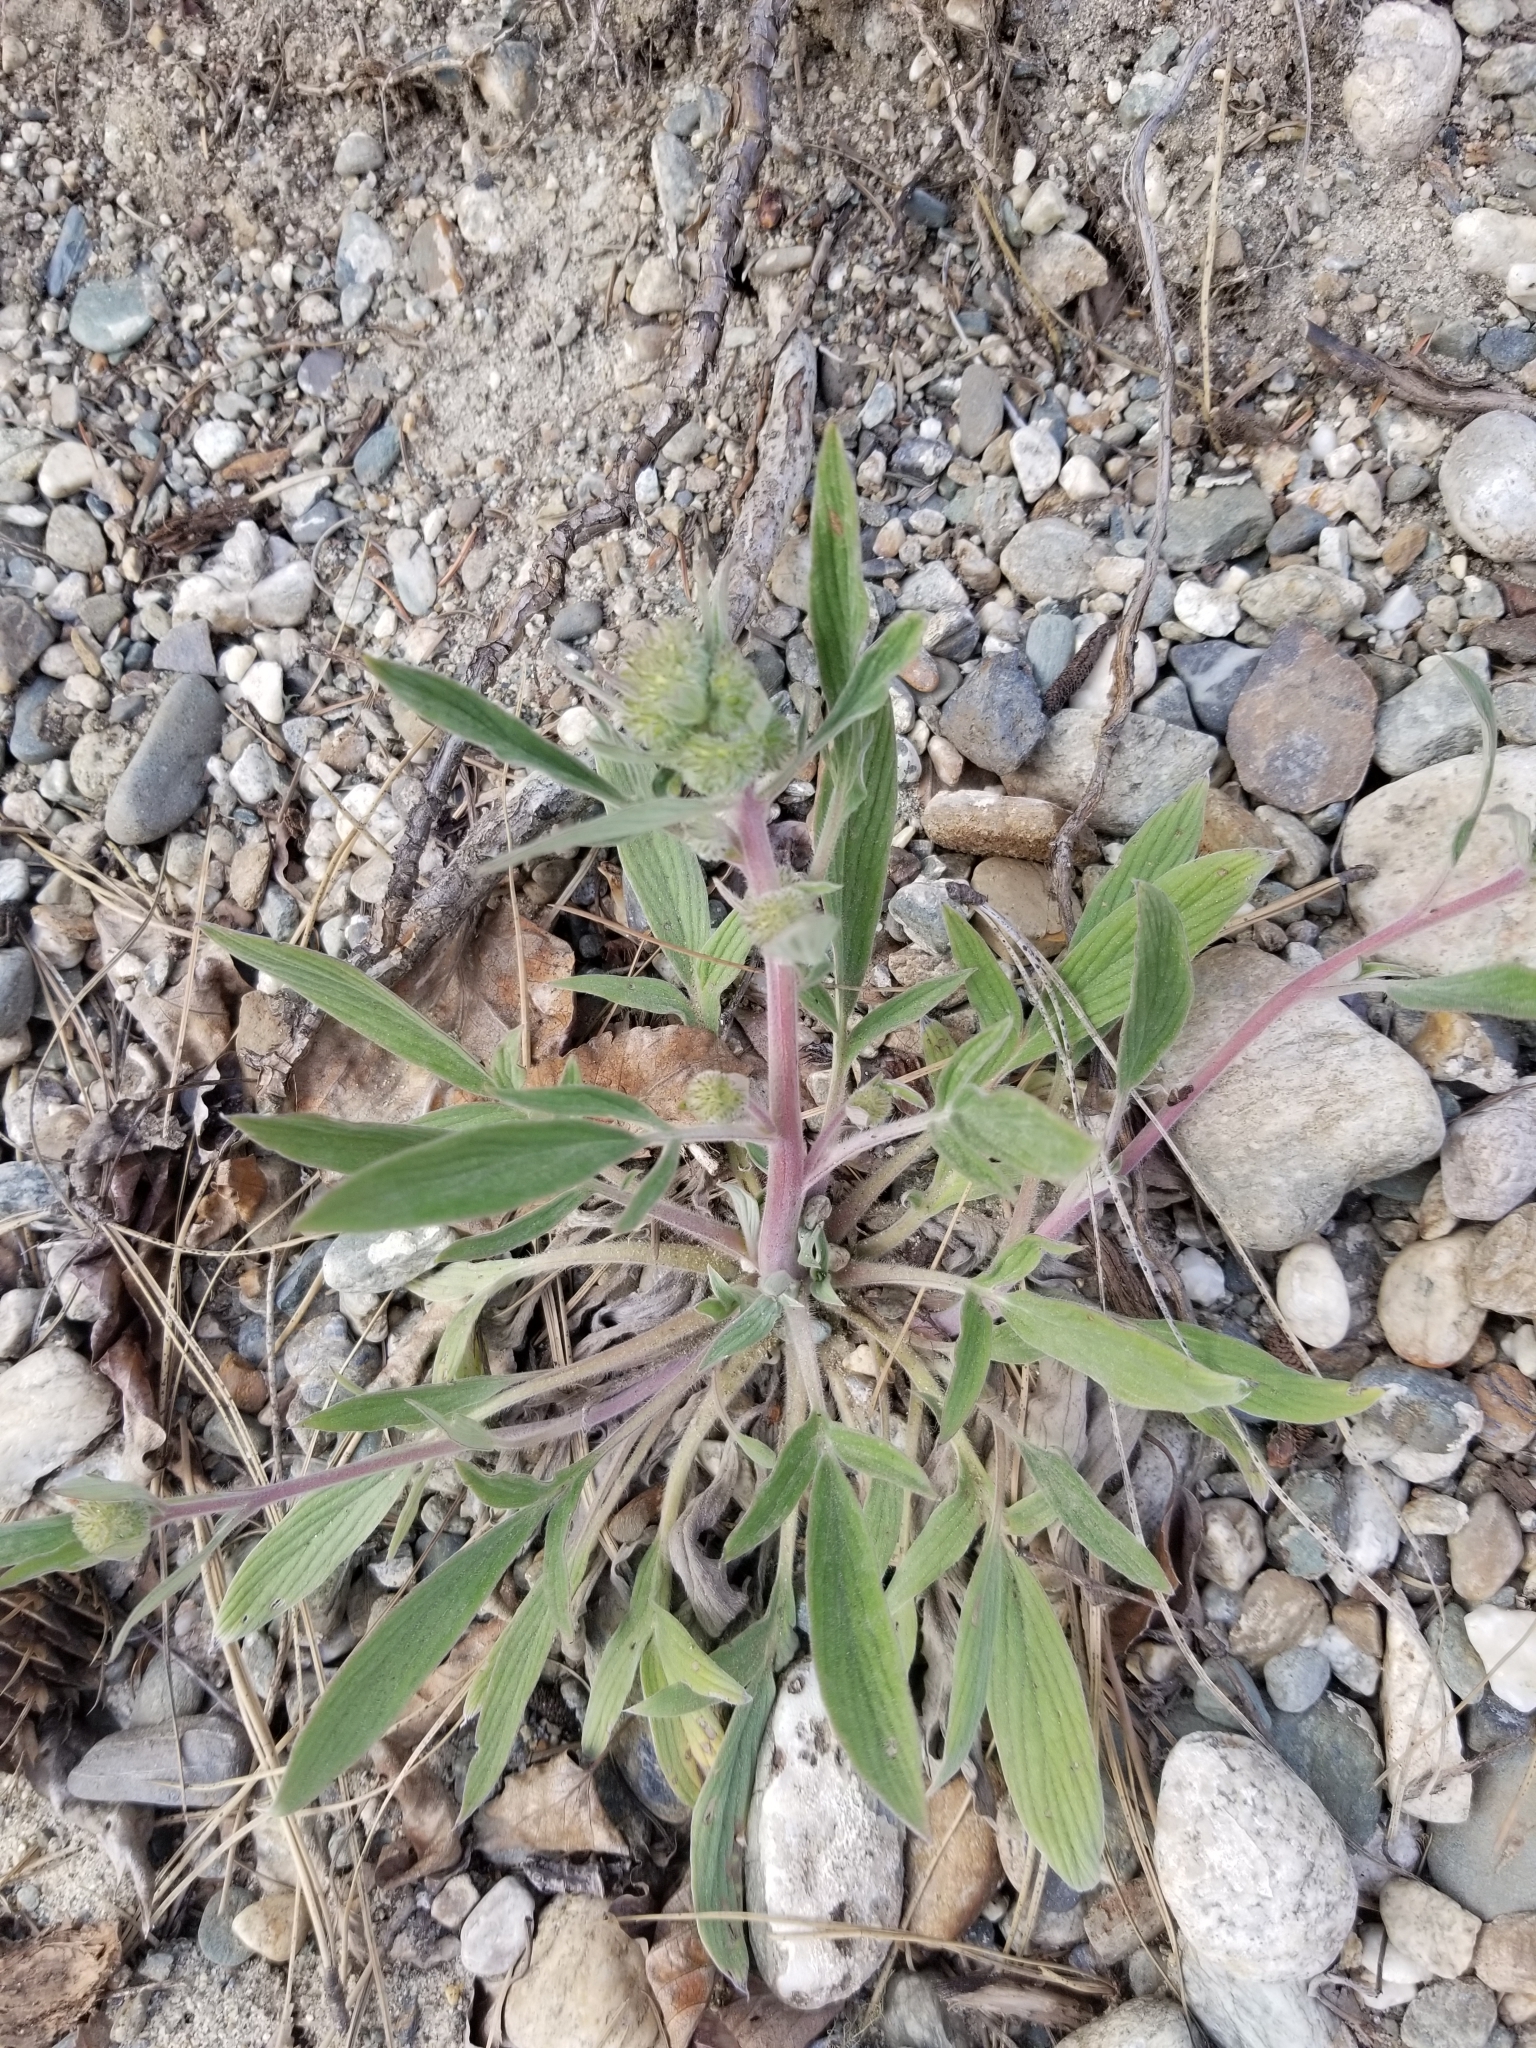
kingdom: Plantae
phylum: Tracheophyta
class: Magnoliopsida
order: Boraginales
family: Hydrophyllaceae
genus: Phacelia
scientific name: Phacelia hastata
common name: Silver-leaved phacelia
